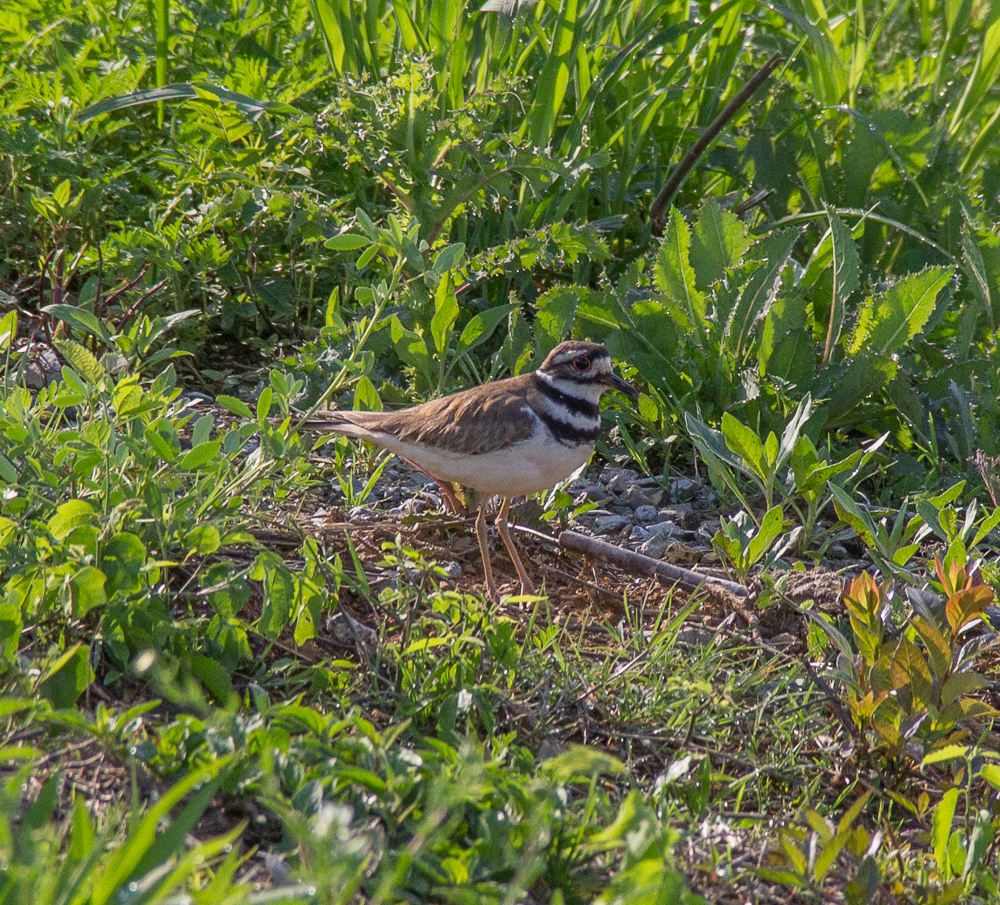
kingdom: Animalia
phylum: Chordata
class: Aves
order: Charadriiformes
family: Charadriidae
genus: Charadrius
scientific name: Charadrius vociferus
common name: Killdeer
